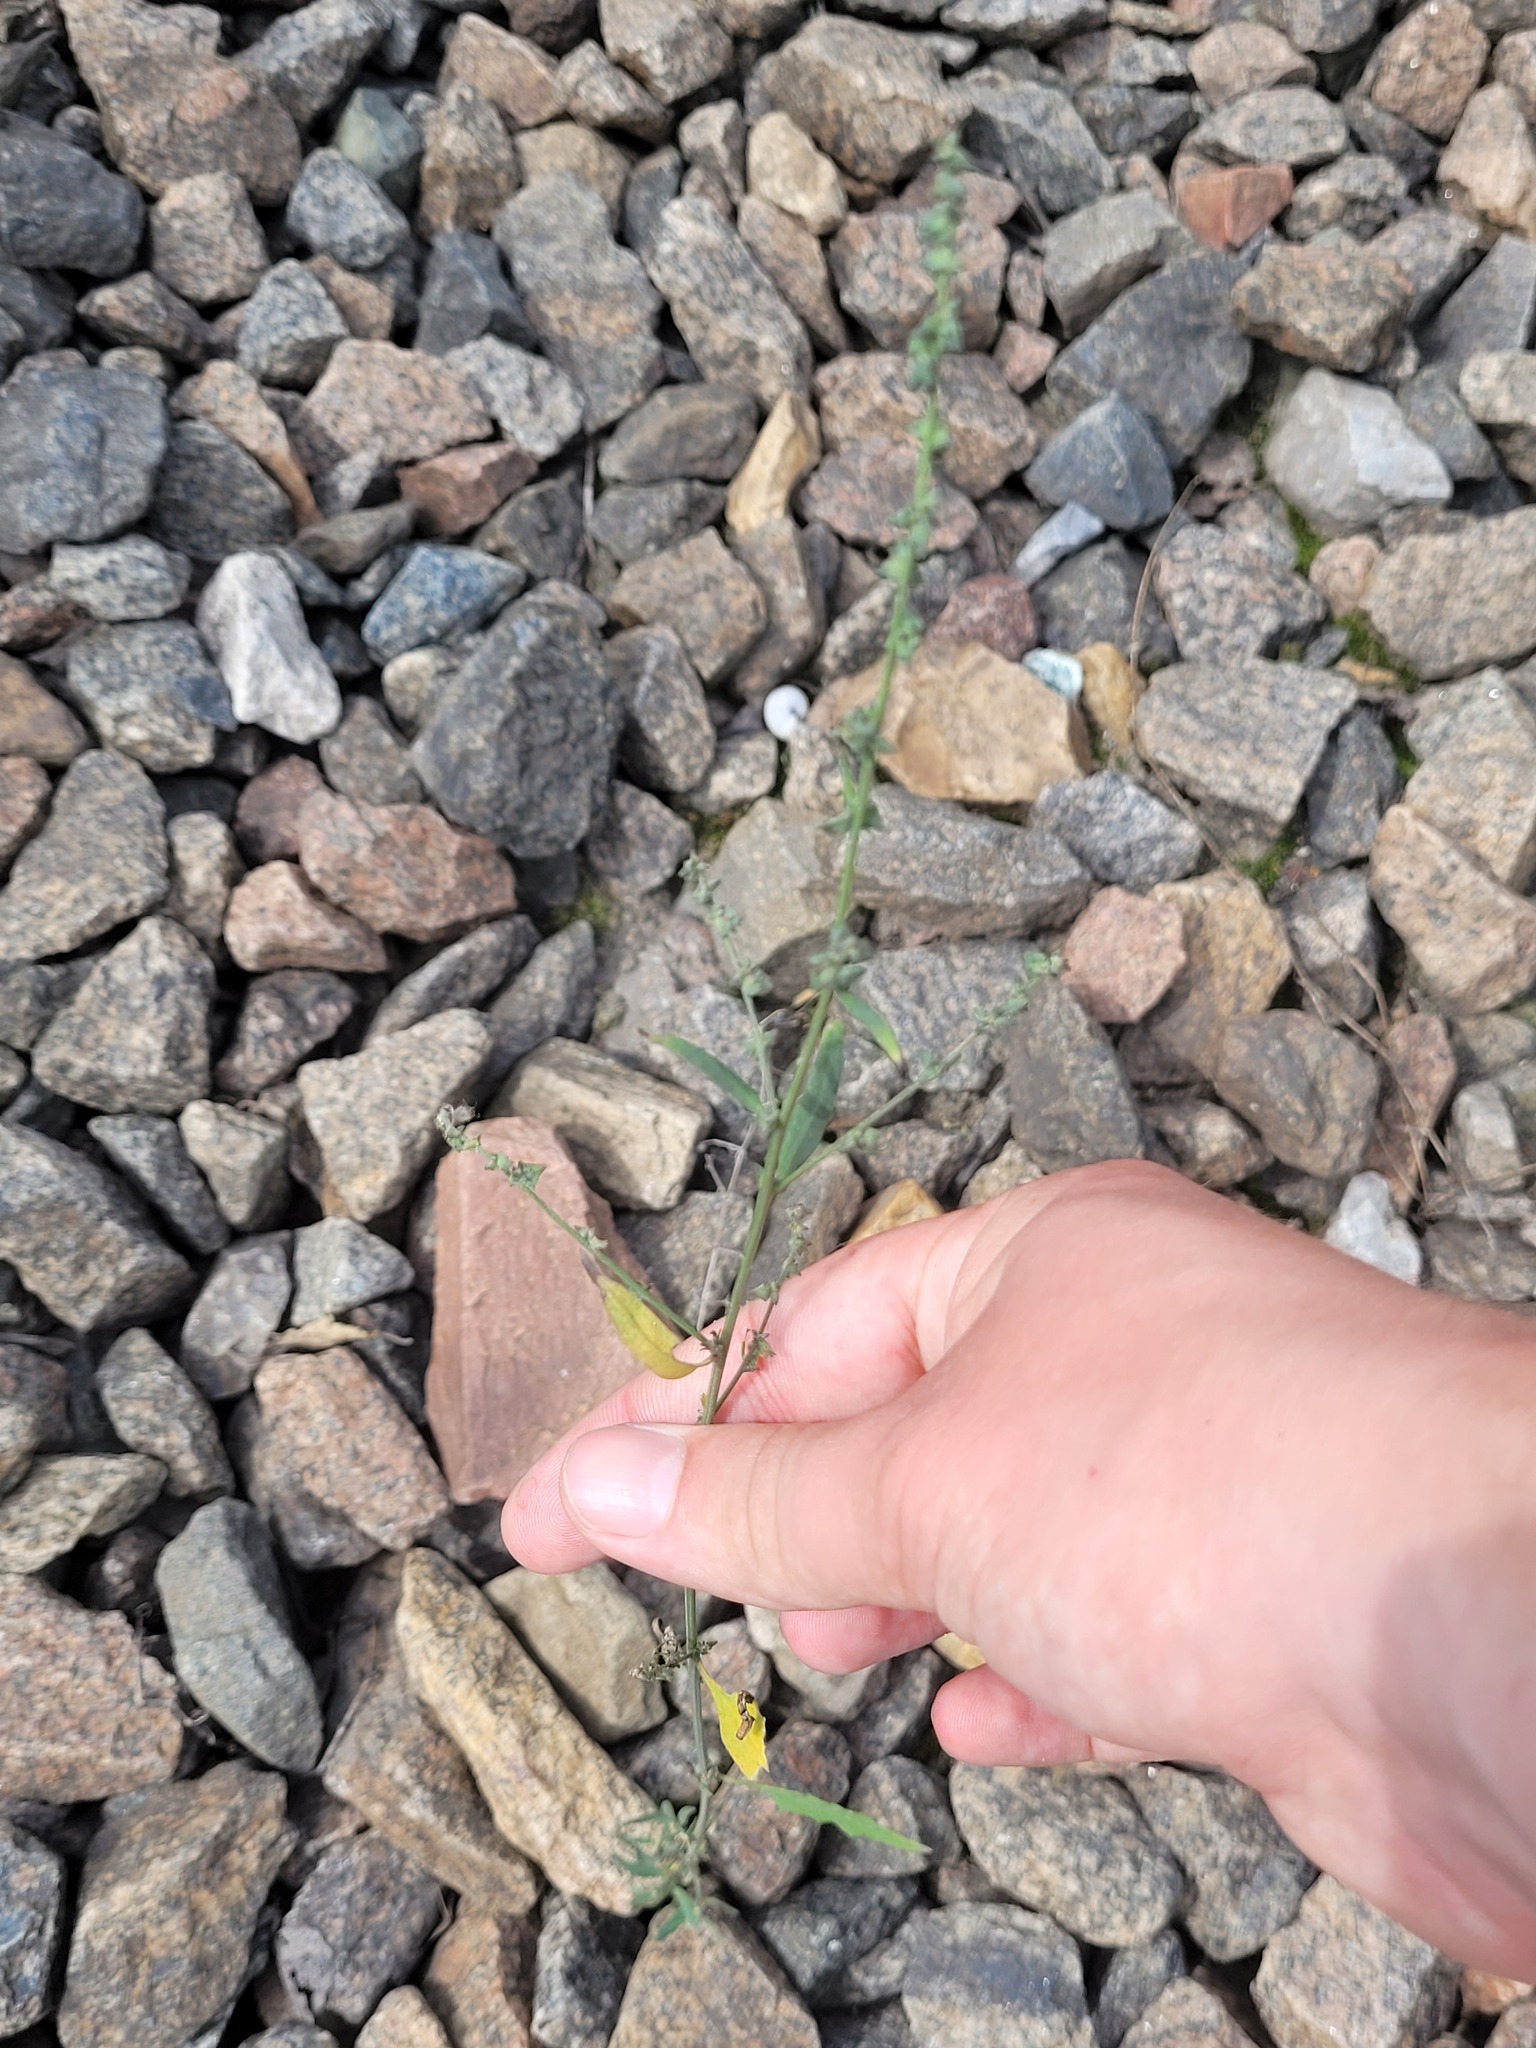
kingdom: Plantae
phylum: Tracheophyta
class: Magnoliopsida
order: Caryophyllales
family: Amaranthaceae
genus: Atriplex
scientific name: Atriplex patula
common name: Common orache
